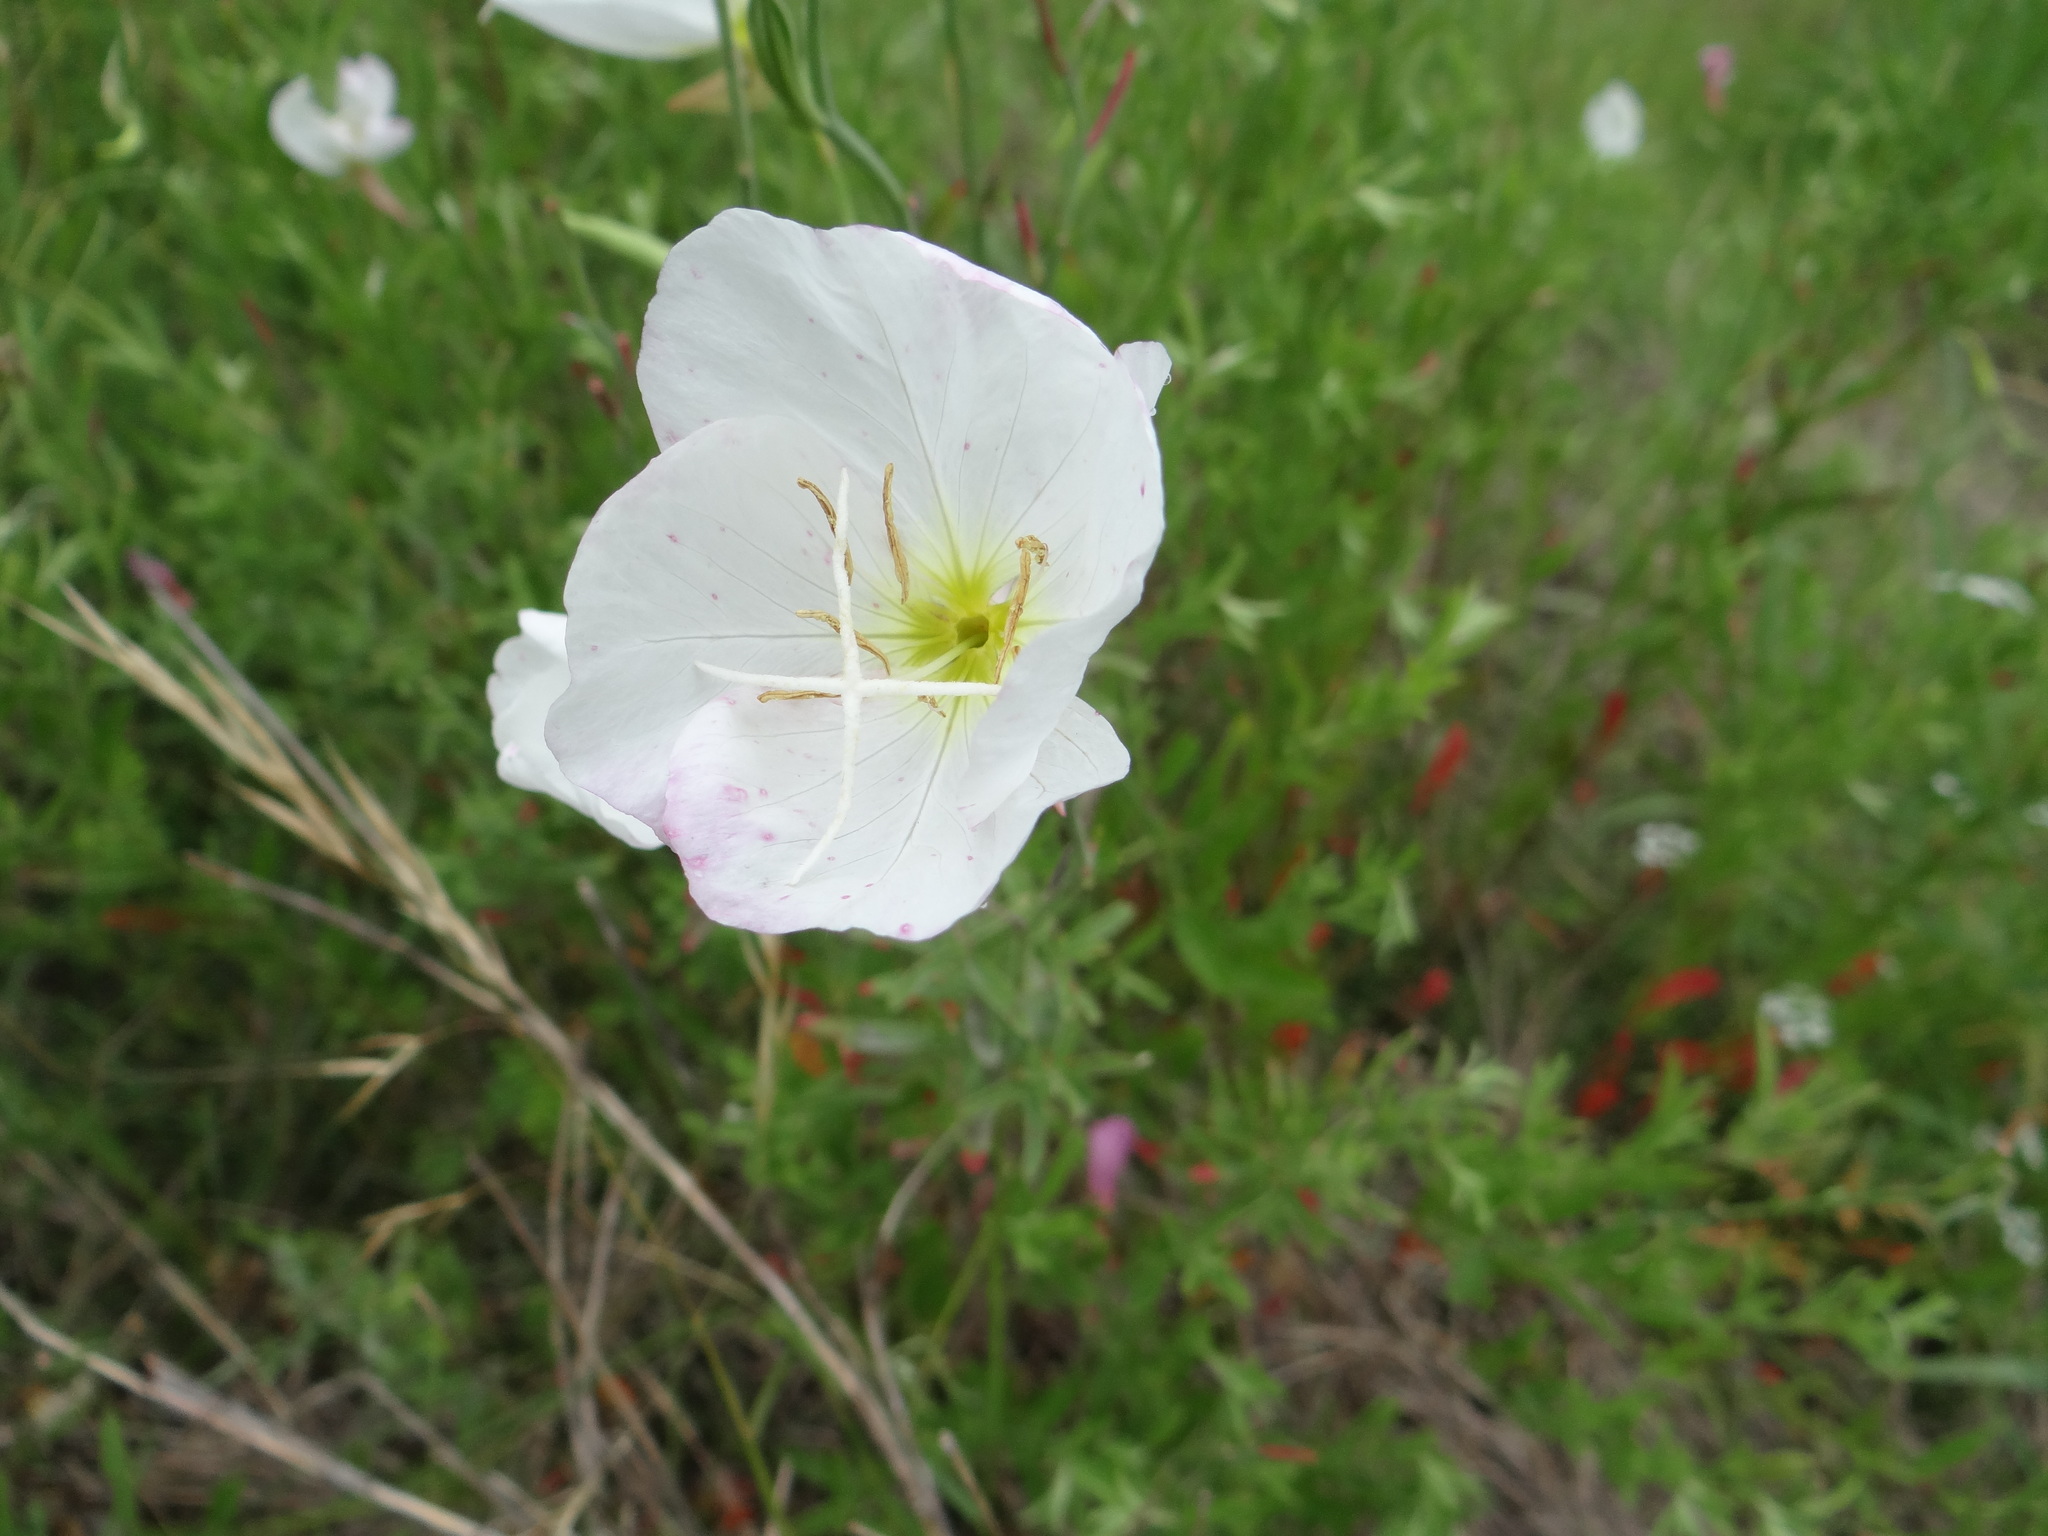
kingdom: Plantae
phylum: Tracheophyta
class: Magnoliopsida
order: Myrtales
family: Onagraceae
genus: Oenothera
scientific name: Oenothera speciosa
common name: White evening-primrose
